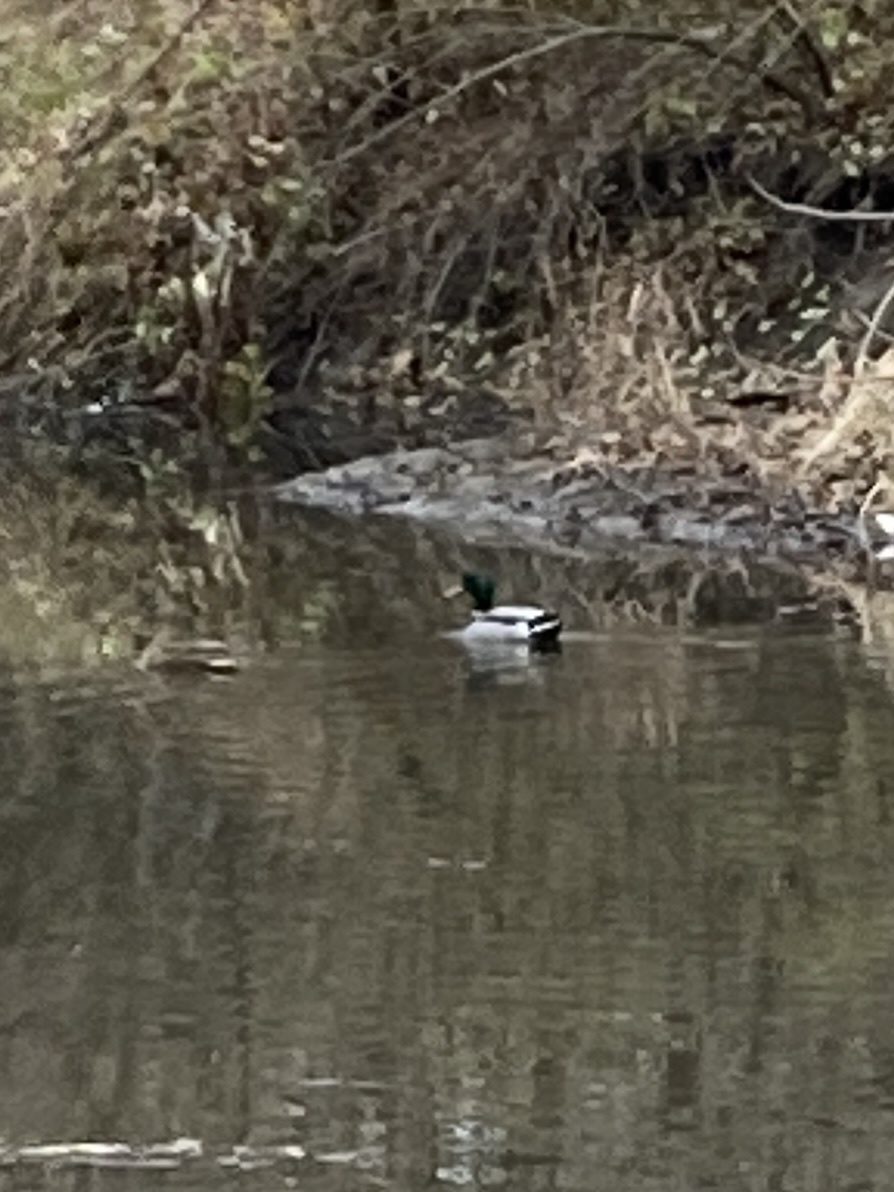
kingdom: Animalia
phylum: Chordata
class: Aves
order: Anseriformes
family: Anatidae
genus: Anas
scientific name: Anas platyrhynchos
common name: Mallard
